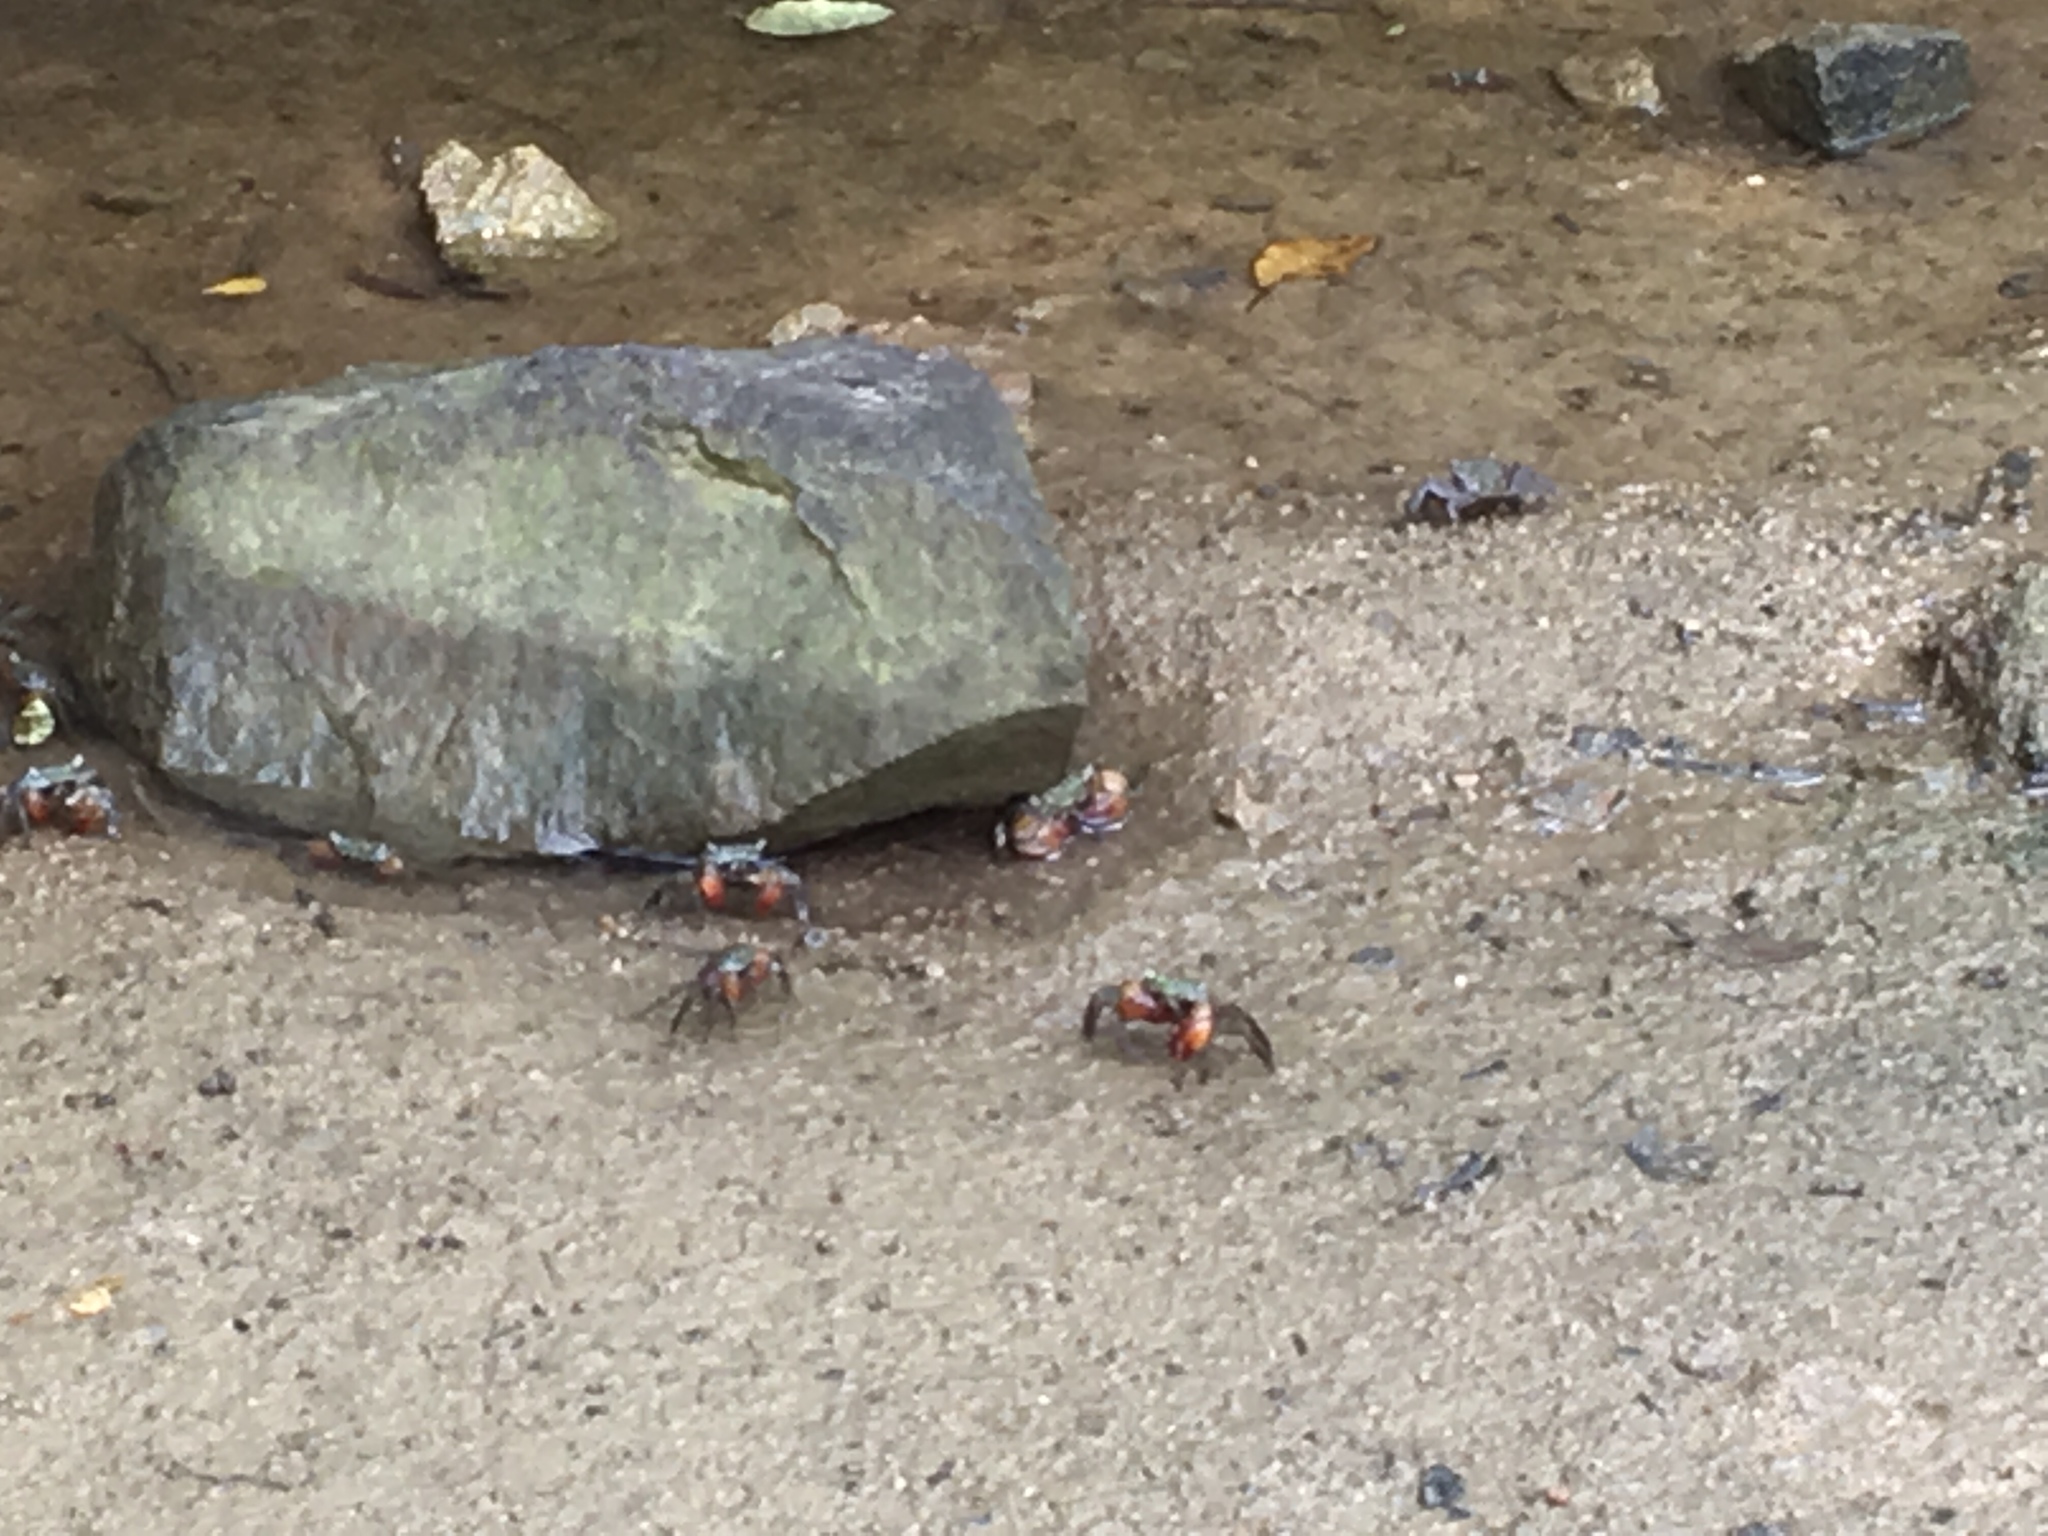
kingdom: Animalia
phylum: Arthropoda
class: Malacostraca
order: Decapoda
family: Sesarmidae
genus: Parasesarma
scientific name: Parasesarma bidens
